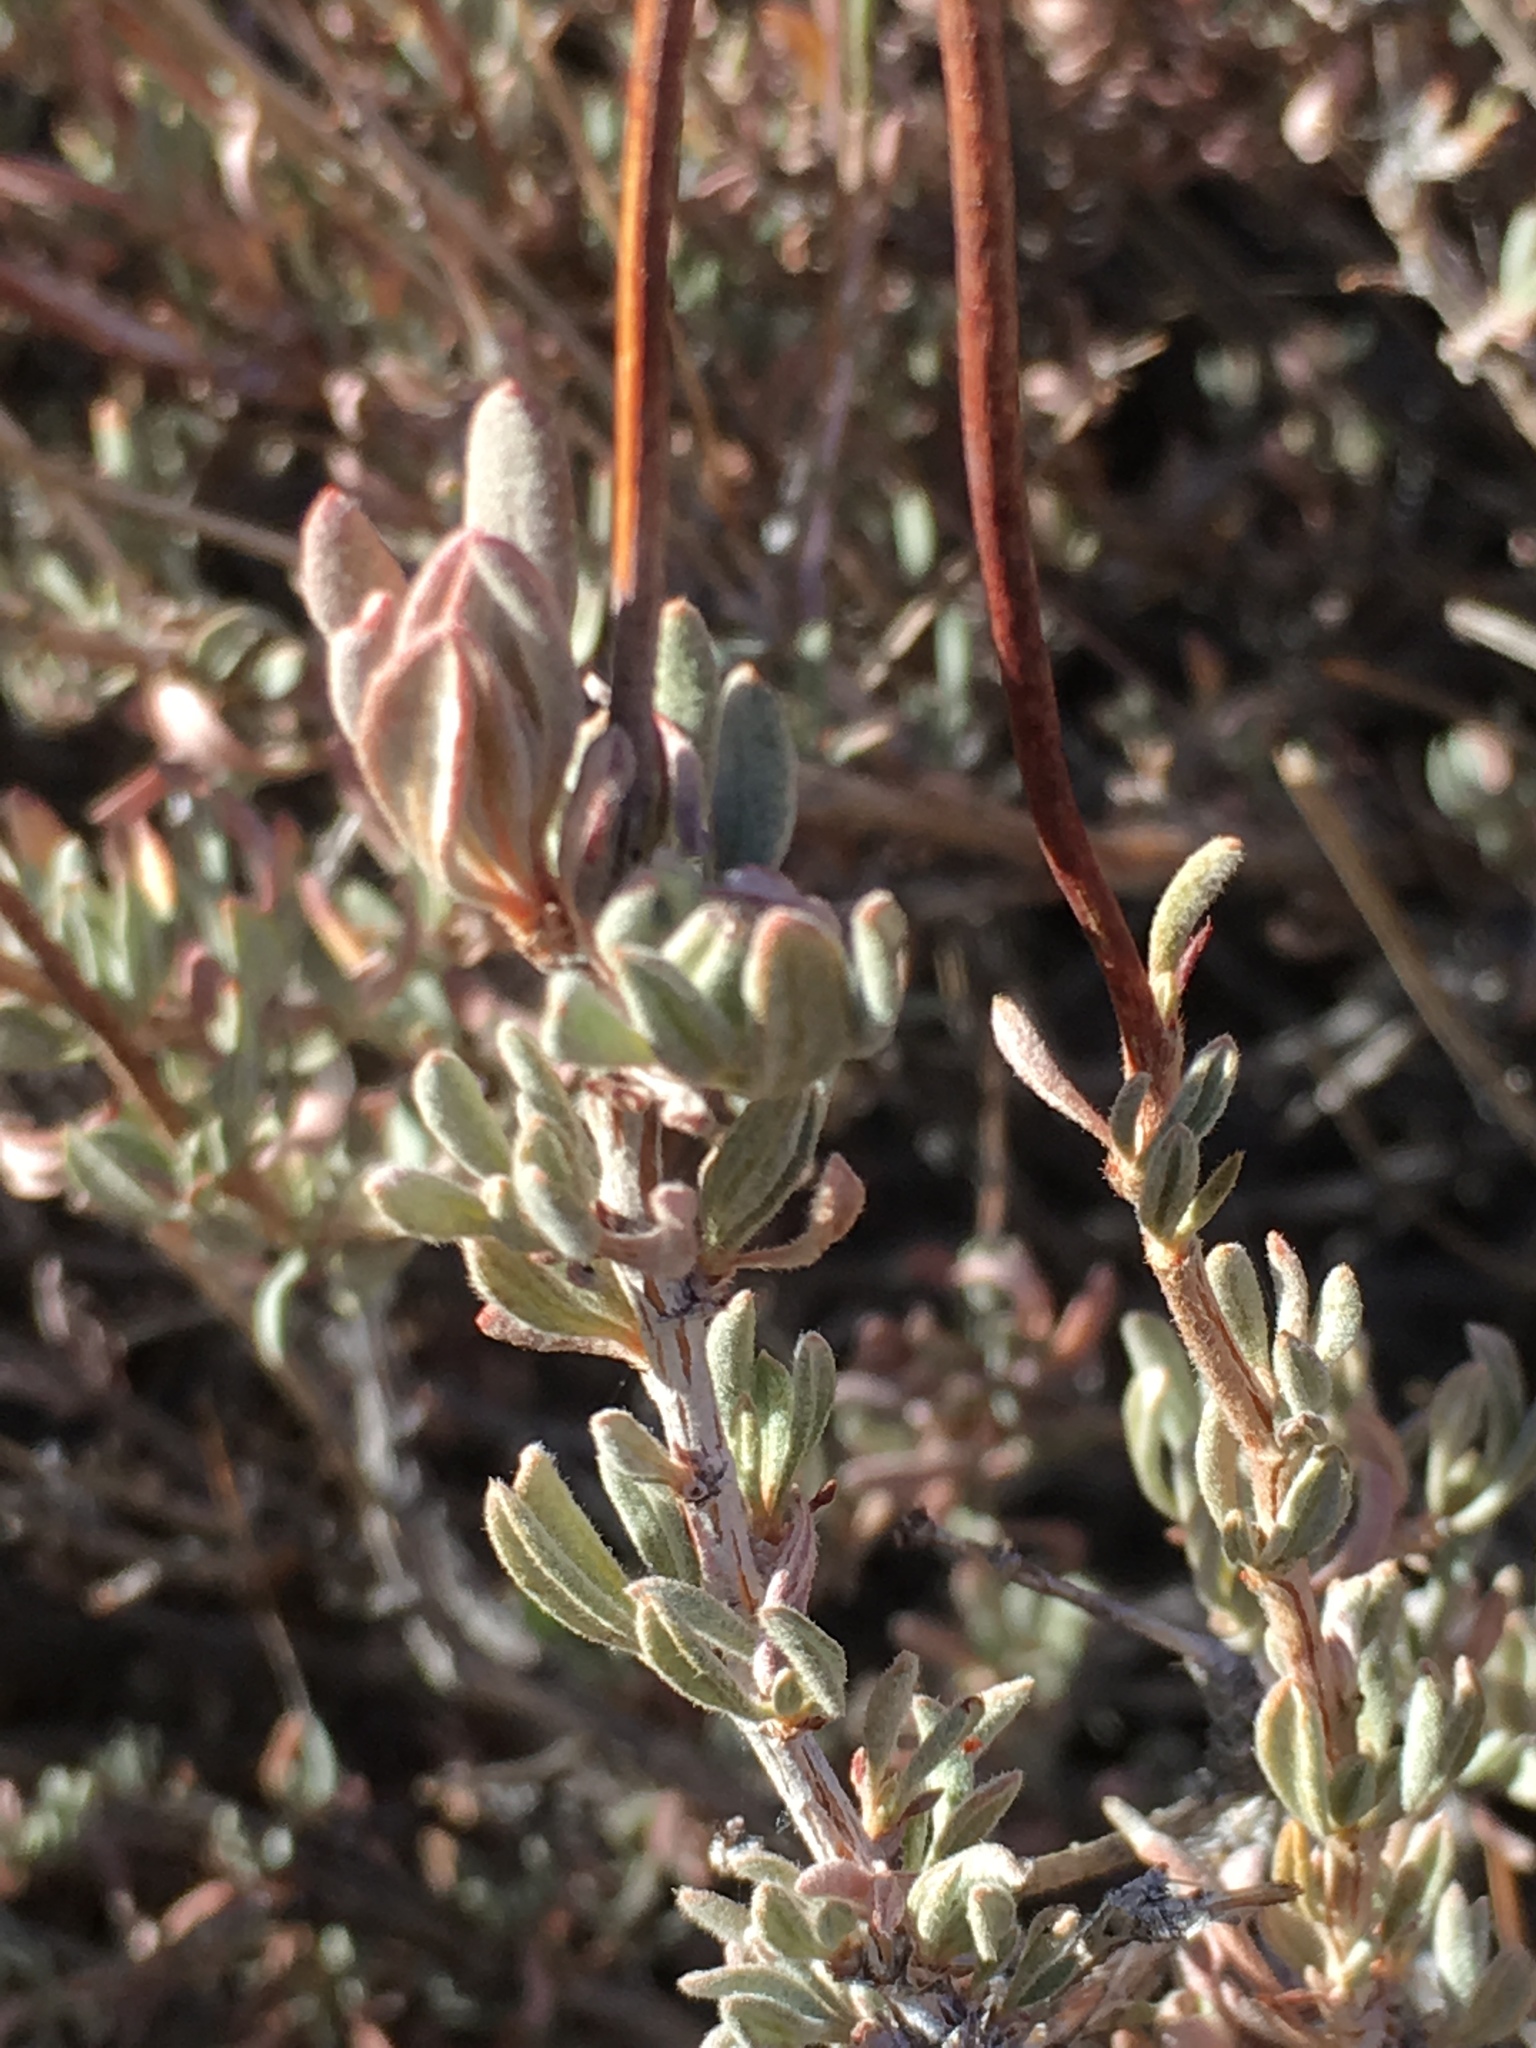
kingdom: Plantae
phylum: Tracheophyta
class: Magnoliopsida
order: Caryophyllales
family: Polygonaceae
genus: Eriogonum
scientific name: Eriogonum fasciculatum
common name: California wild buckwheat
